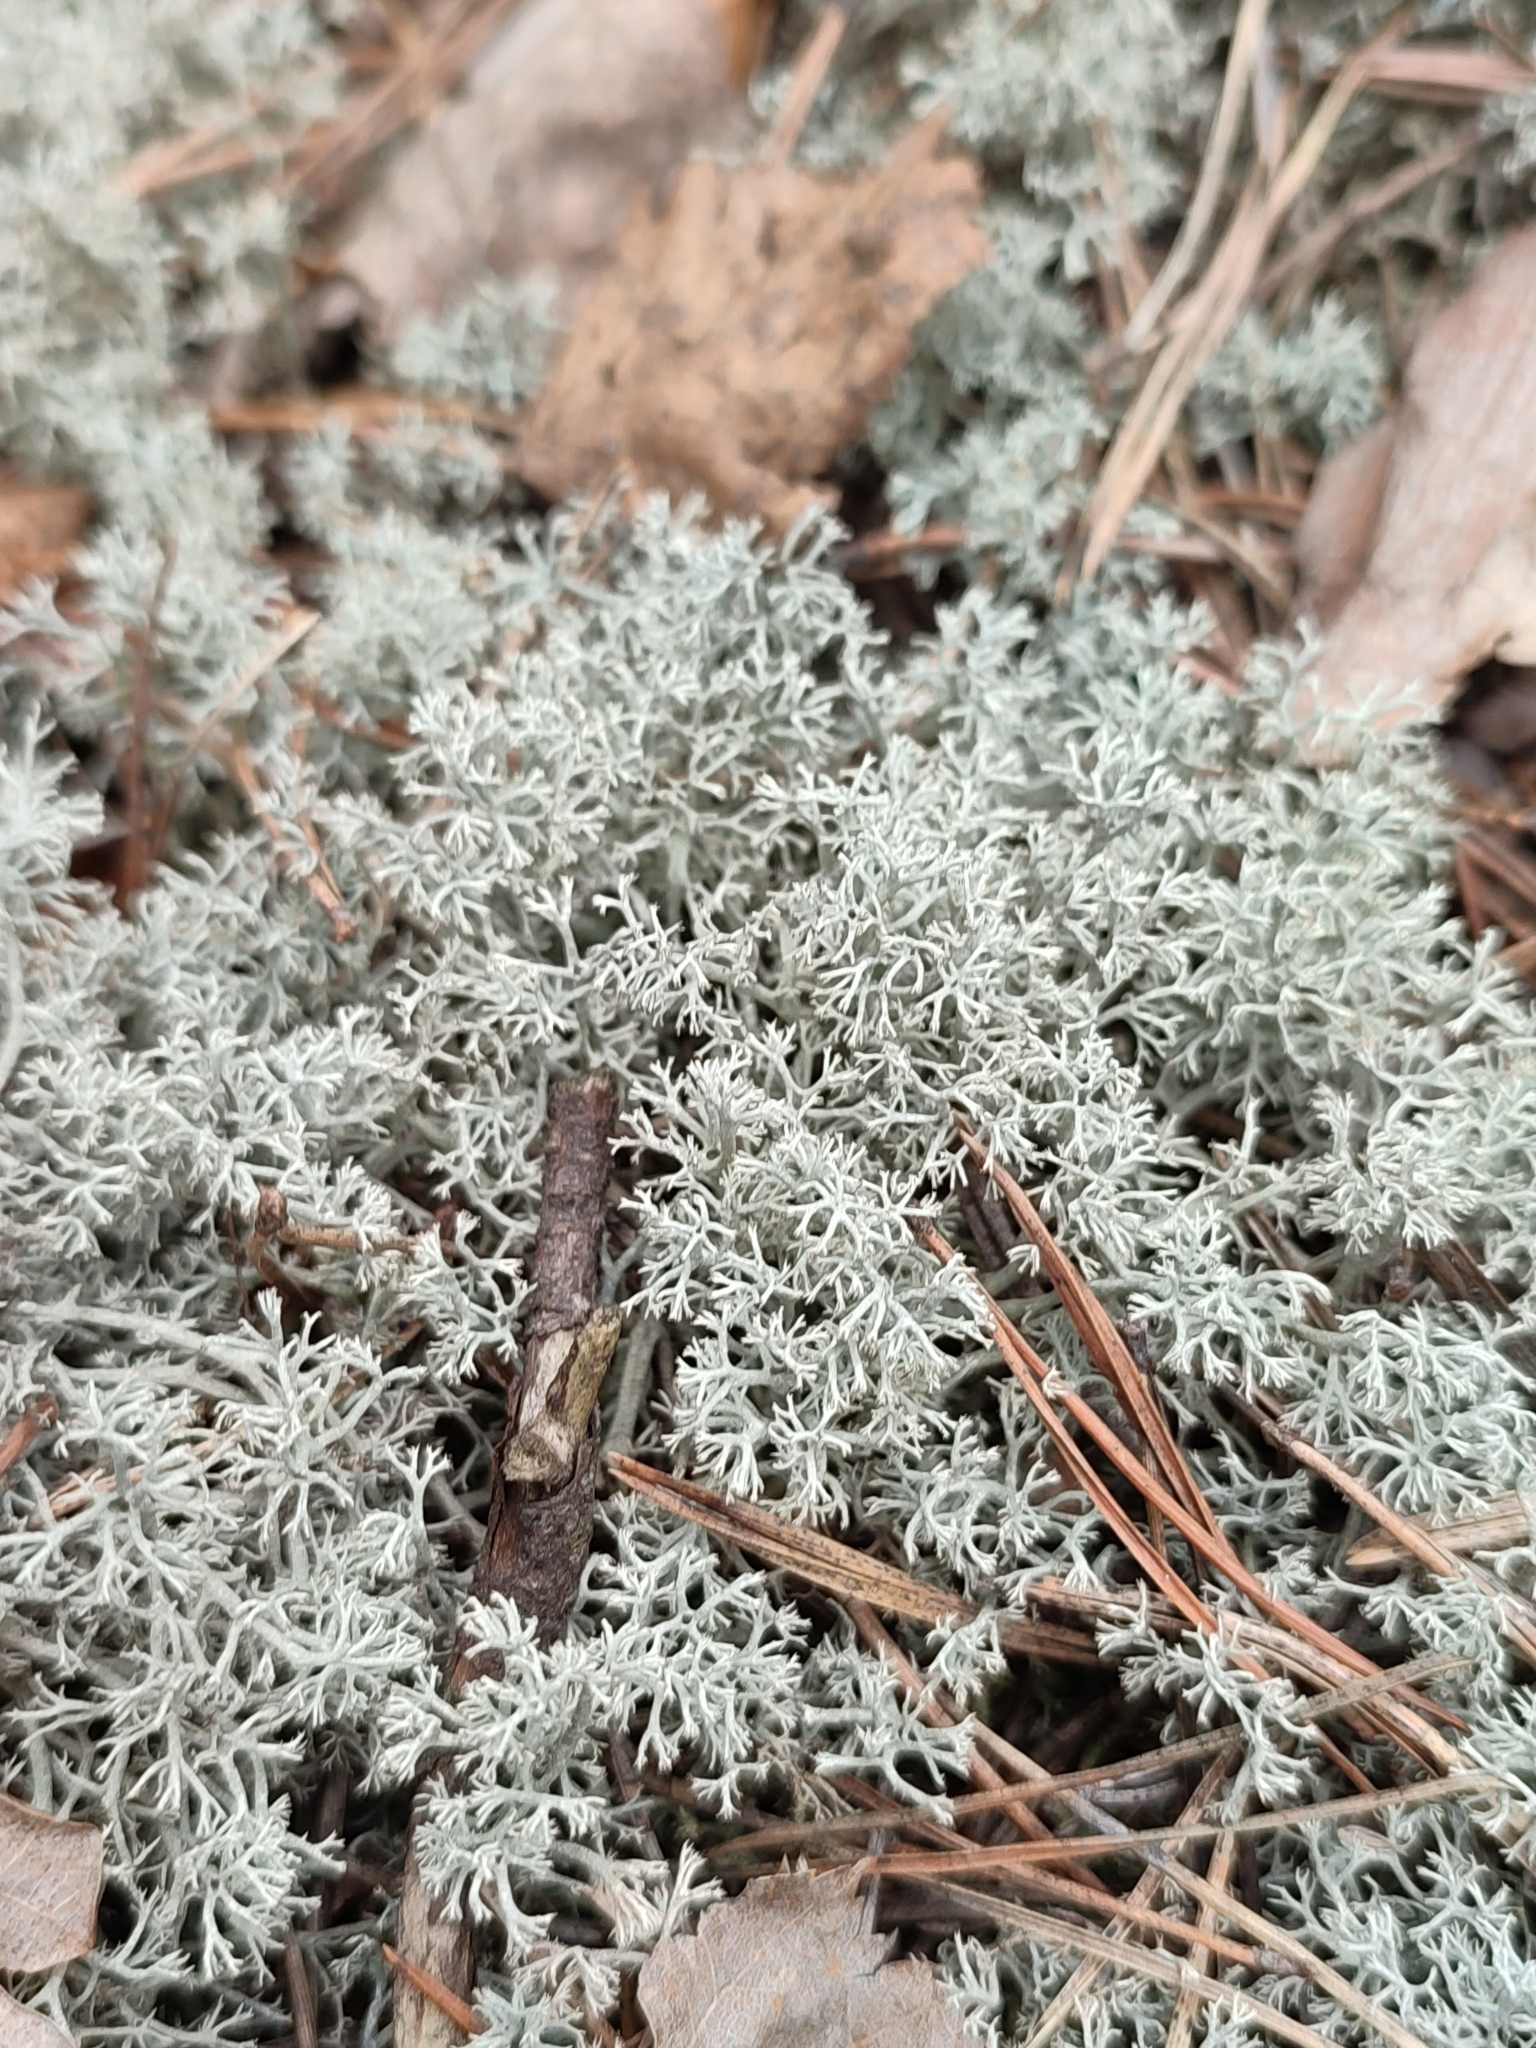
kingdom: Fungi
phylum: Ascomycota
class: Lecanoromycetes
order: Lecanorales
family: Cladoniaceae
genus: Cladonia
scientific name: Cladonia rangiferina
